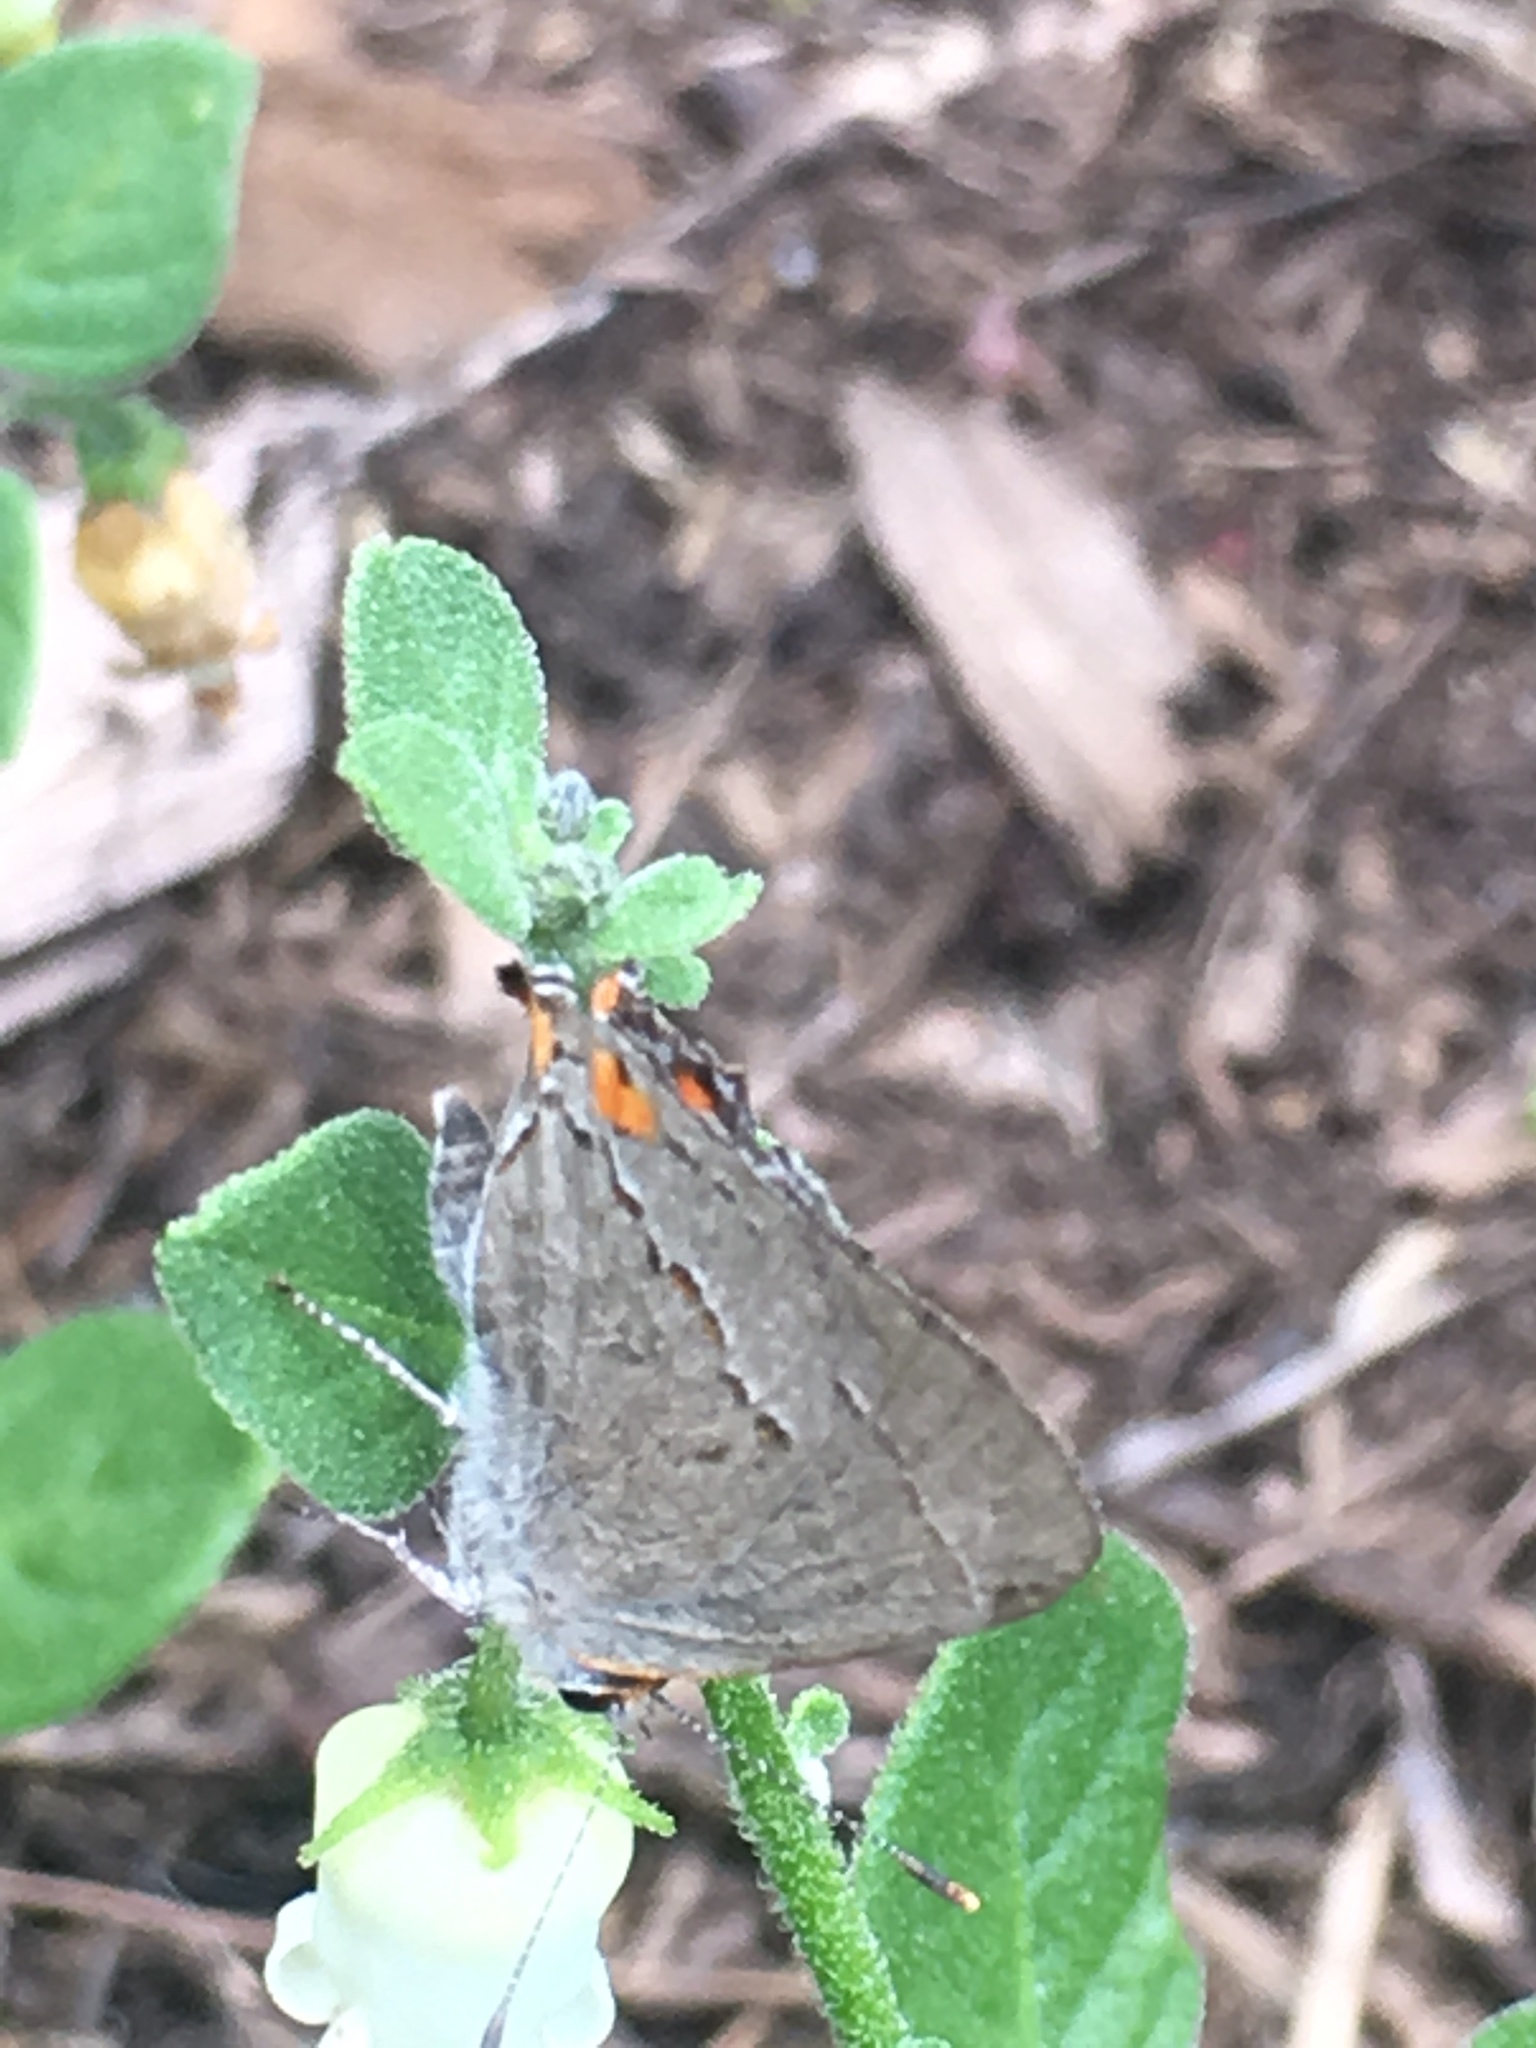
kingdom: Animalia
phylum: Arthropoda
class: Insecta
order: Lepidoptera
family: Lycaenidae
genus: Strymon
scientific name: Strymon melinus
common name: Gray hairstreak
